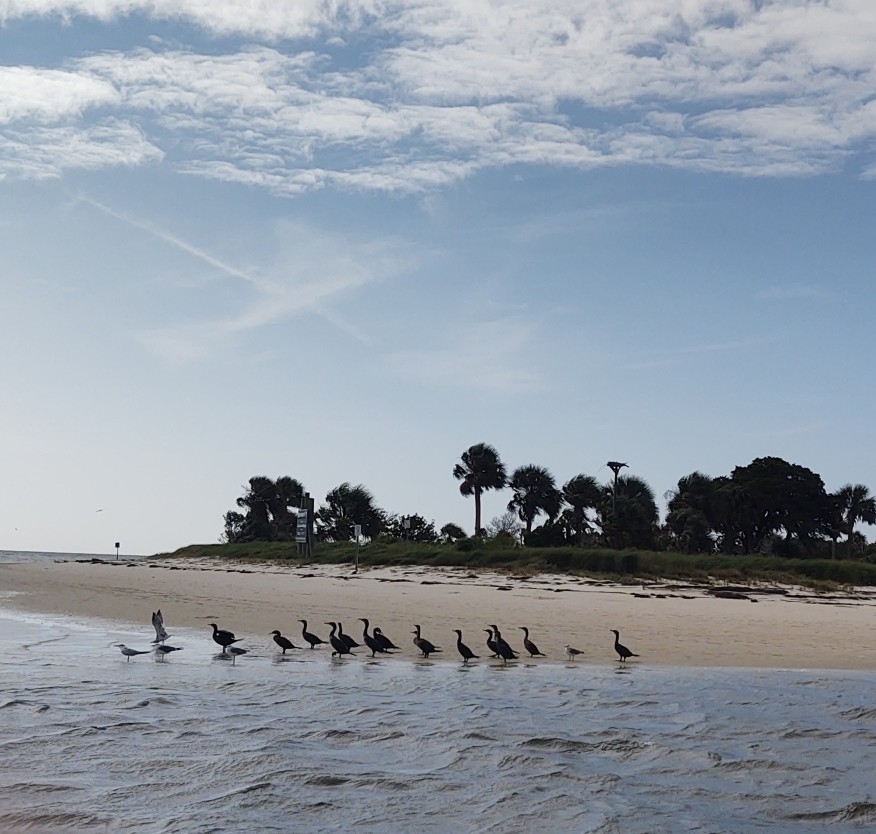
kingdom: Animalia
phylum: Chordata
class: Aves
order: Suliformes
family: Phalacrocoracidae
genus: Phalacrocorax
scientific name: Phalacrocorax auritus
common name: Double-crested cormorant
